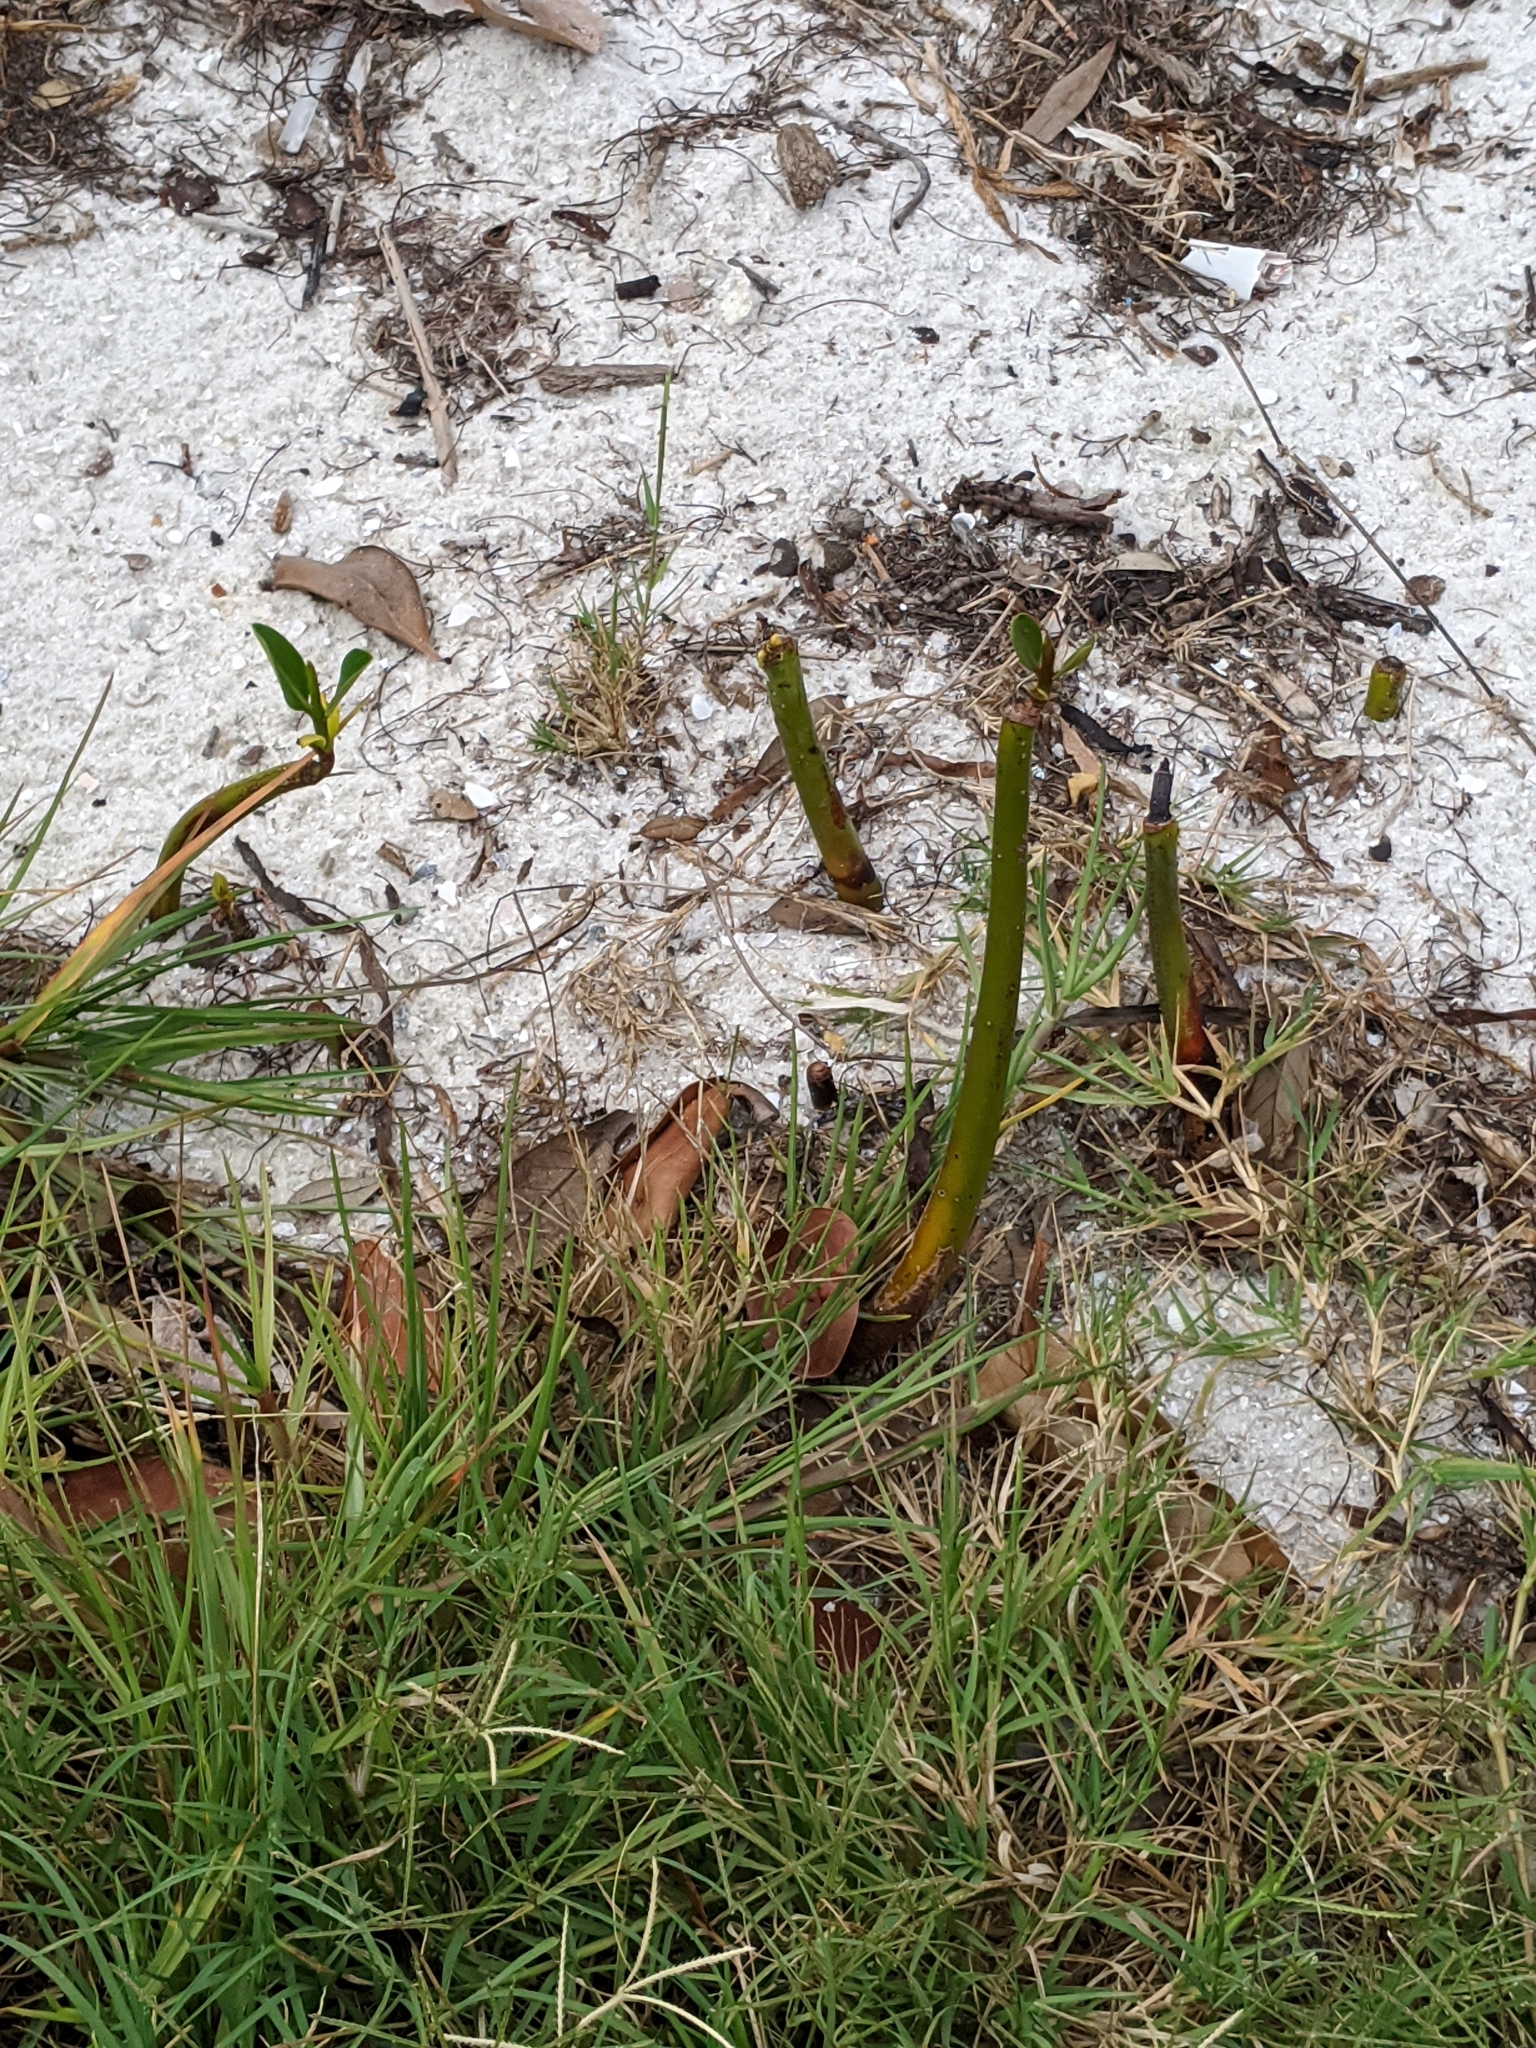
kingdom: Plantae
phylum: Tracheophyta
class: Magnoliopsida
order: Malpighiales
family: Rhizophoraceae
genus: Rhizophora
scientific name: Rhizophora mangle
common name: Red mangrove
